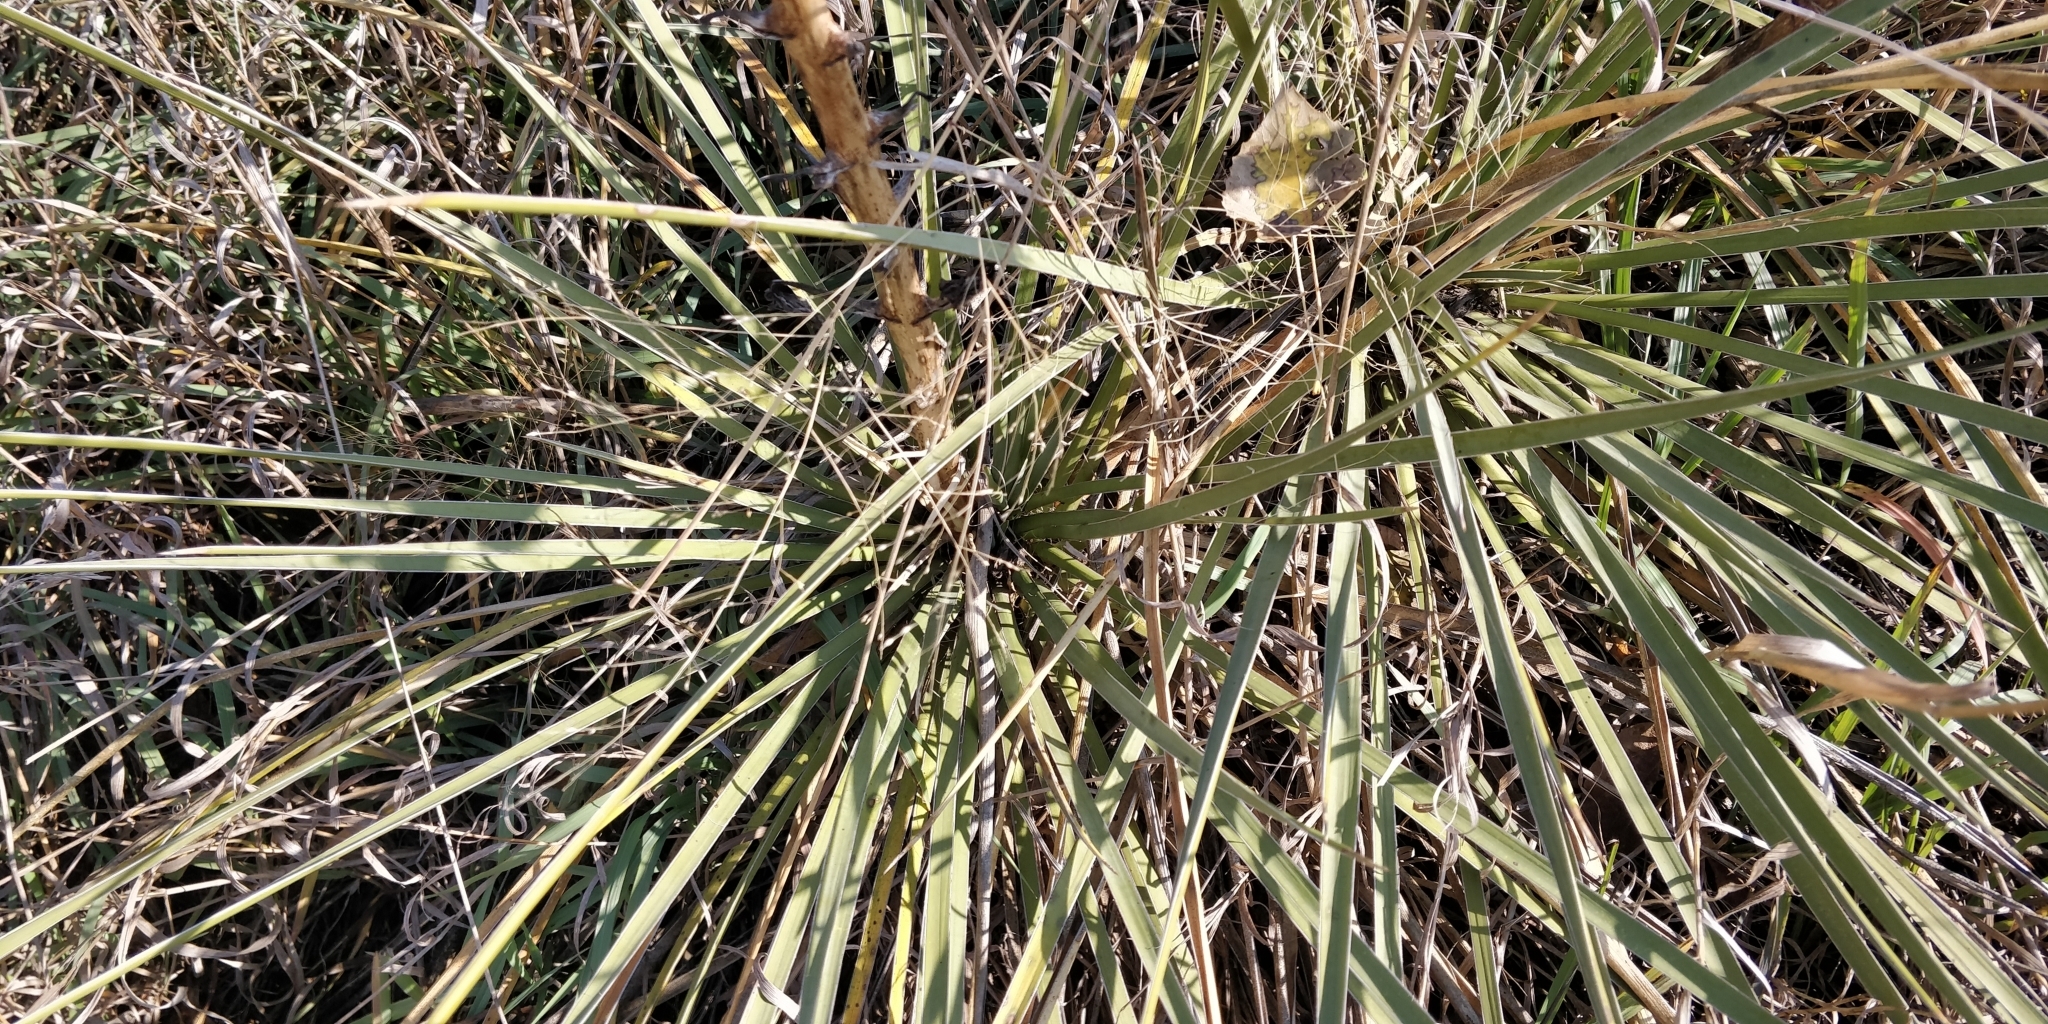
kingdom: Plantae
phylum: Tracheophyta
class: Liliopsida
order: Asparagales
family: Asparagaceae
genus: Yucca
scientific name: Yucca glauca
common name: Great plains yucca
